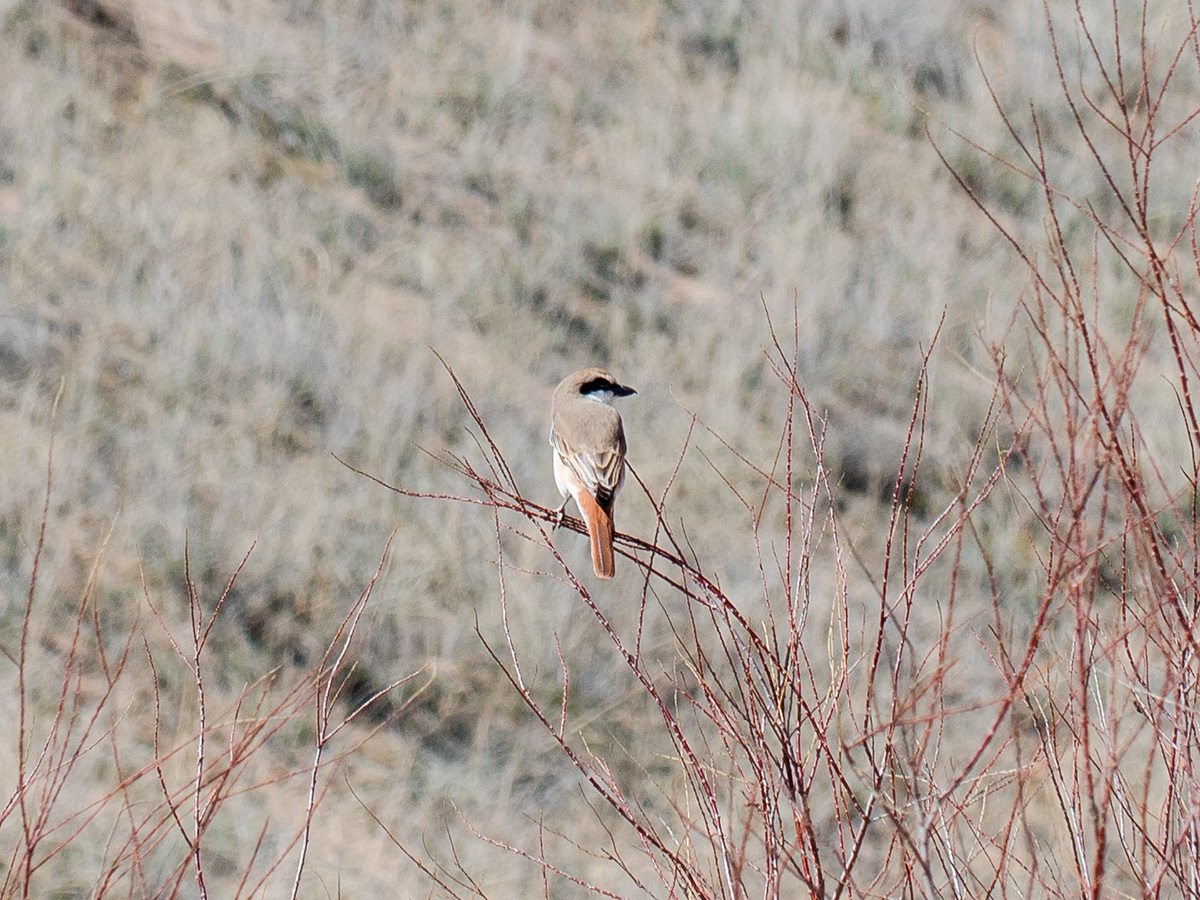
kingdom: Animalia
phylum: Chordata
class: Aves
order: Passeriformes
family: Laniidae
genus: Lanius
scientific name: Lanius phoenicuroides
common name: Red-tailed shrike
